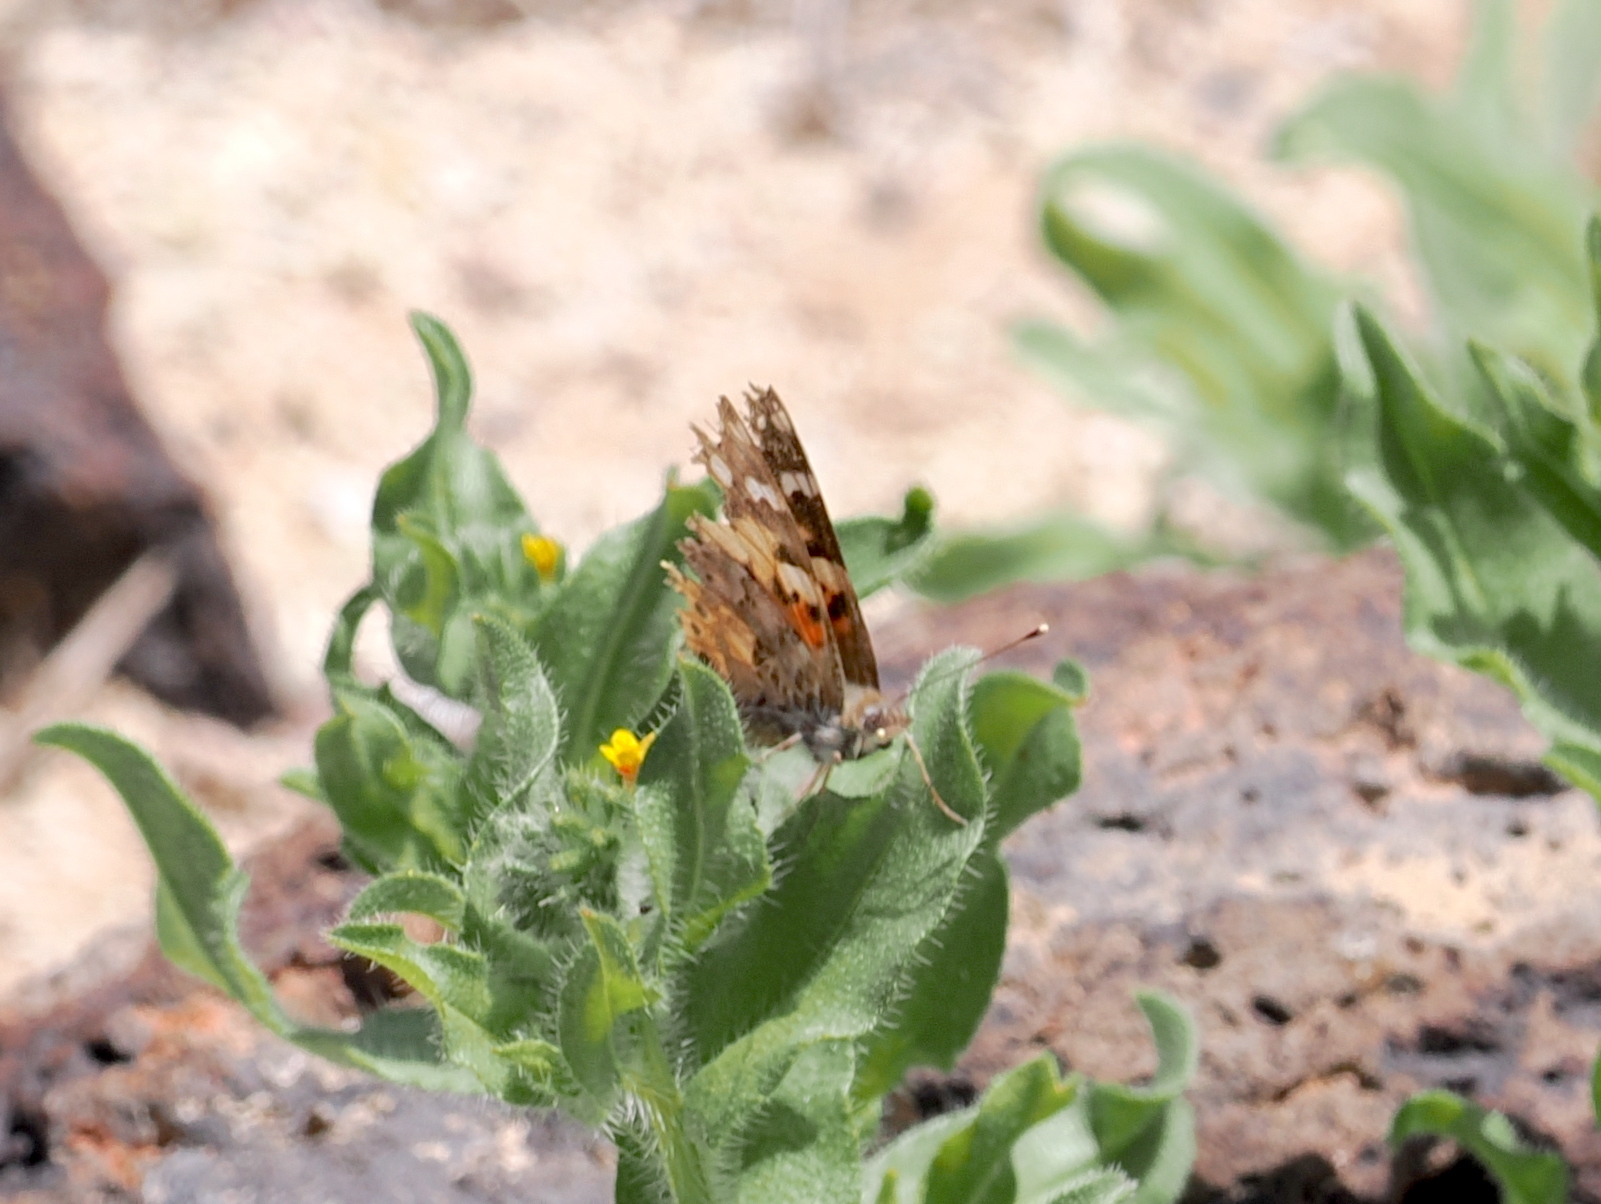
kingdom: Animalia
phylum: Arthropoda
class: Insecta
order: Lepidoptera
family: Nymphalidae
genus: Vanessa
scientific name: Vanessa cardui
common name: Painted lady
